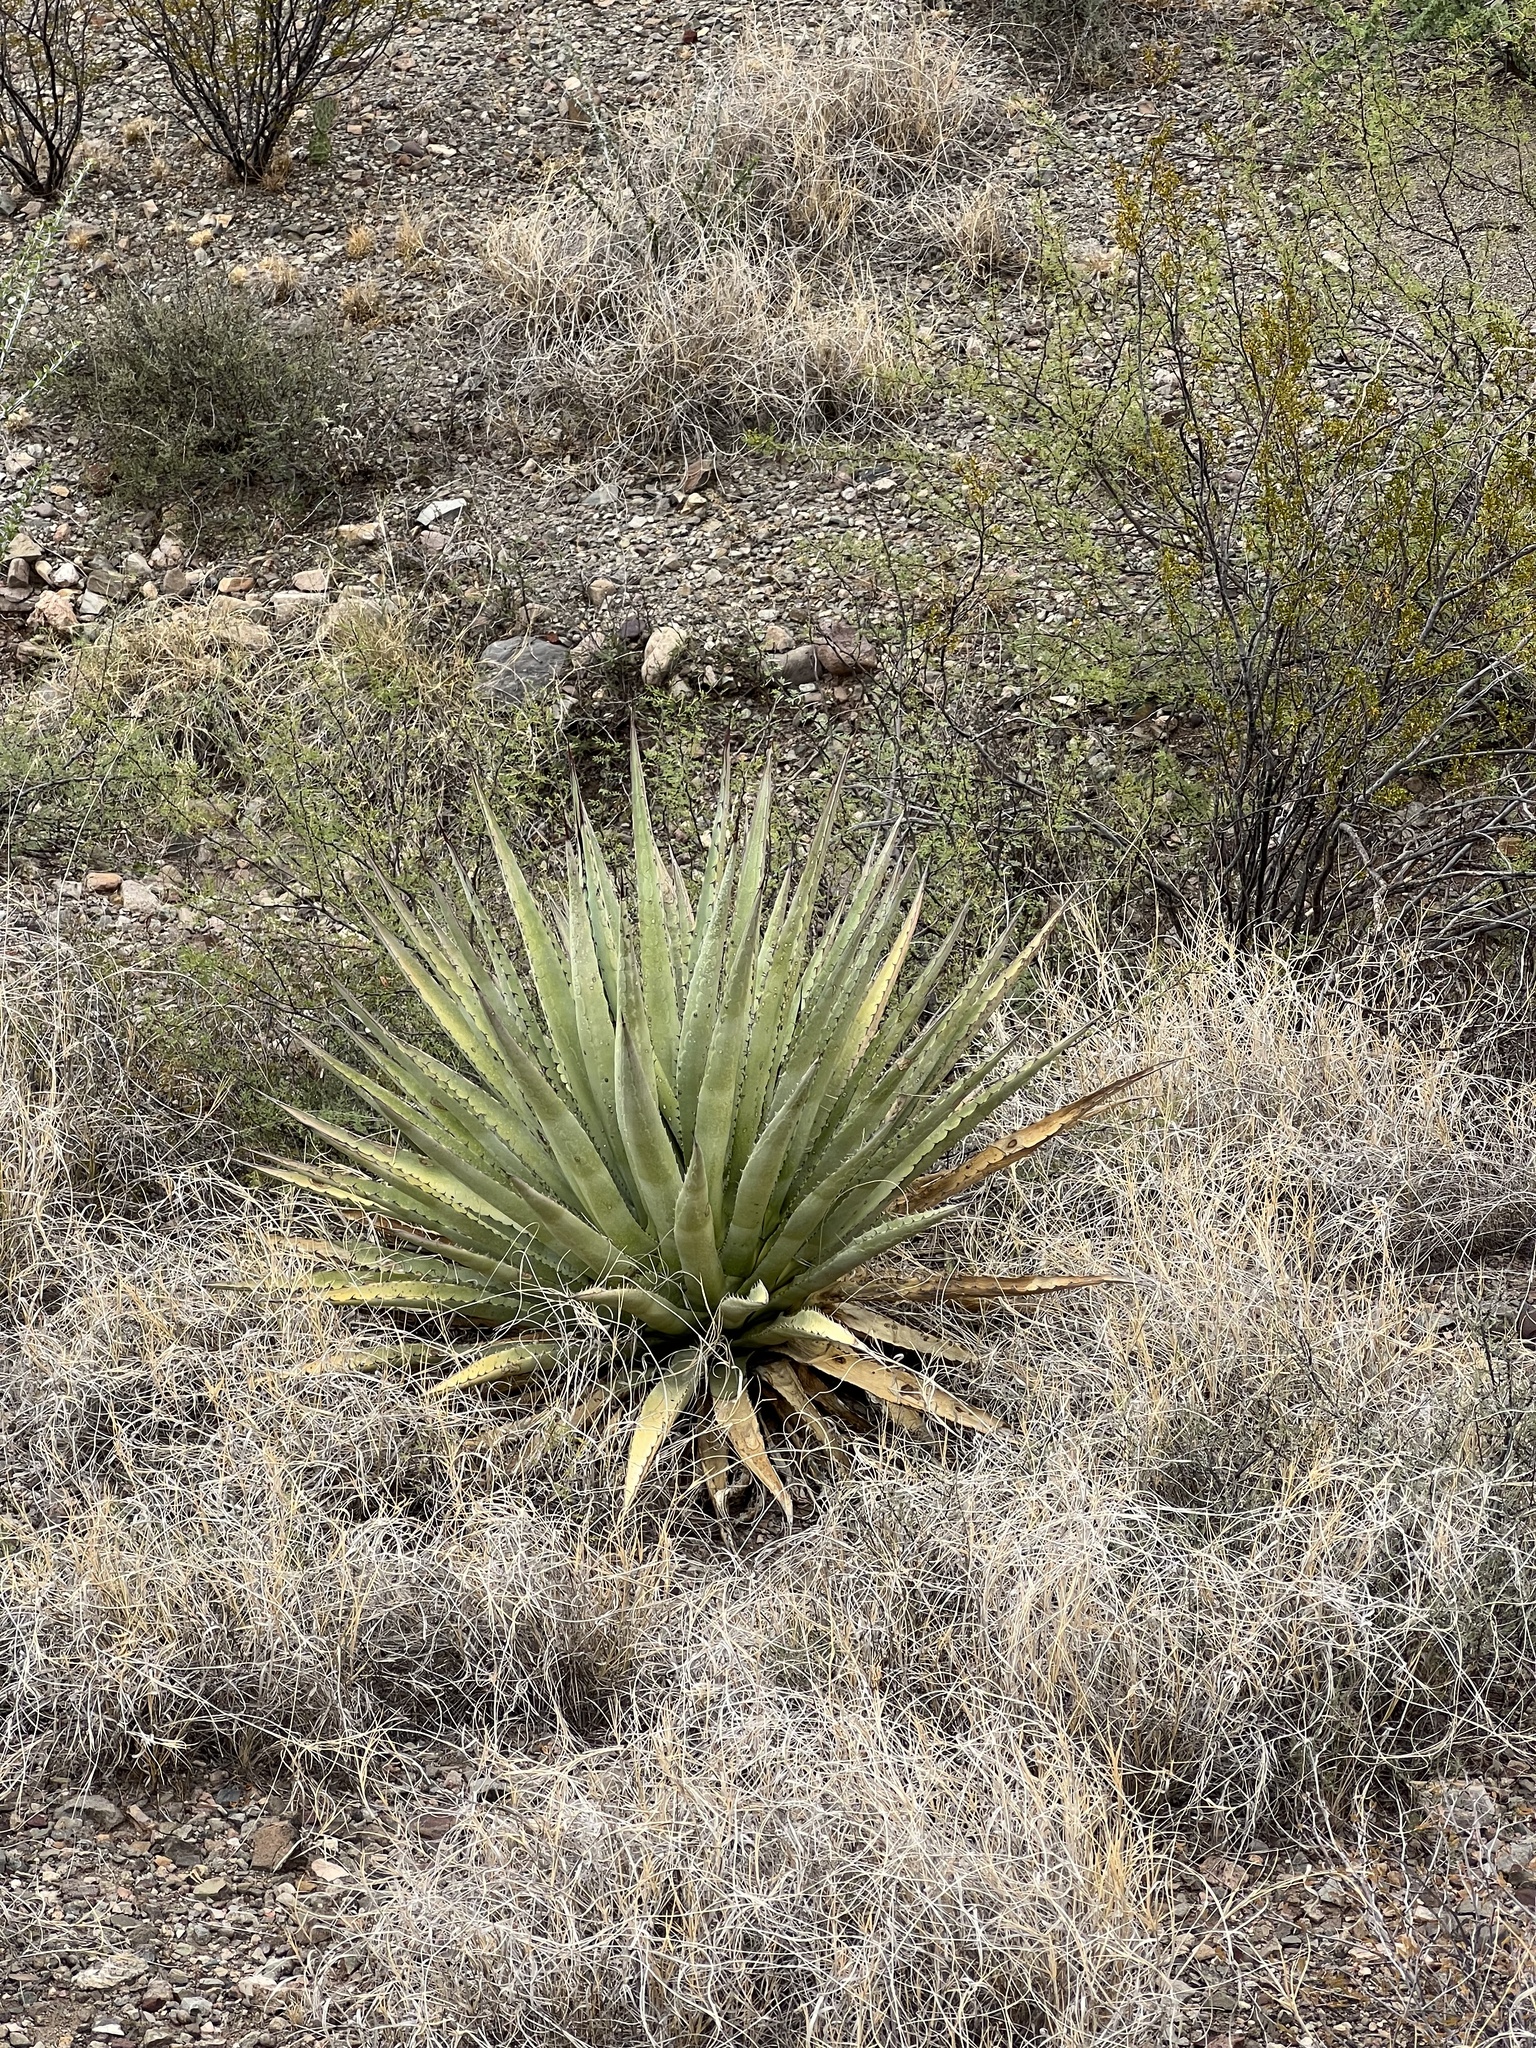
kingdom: Plantae
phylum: Tracheophyta
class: Liliopsida
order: Asparagales
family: Asparagaceae
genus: Agave
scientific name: Agave palmeri
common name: Palmer agave
